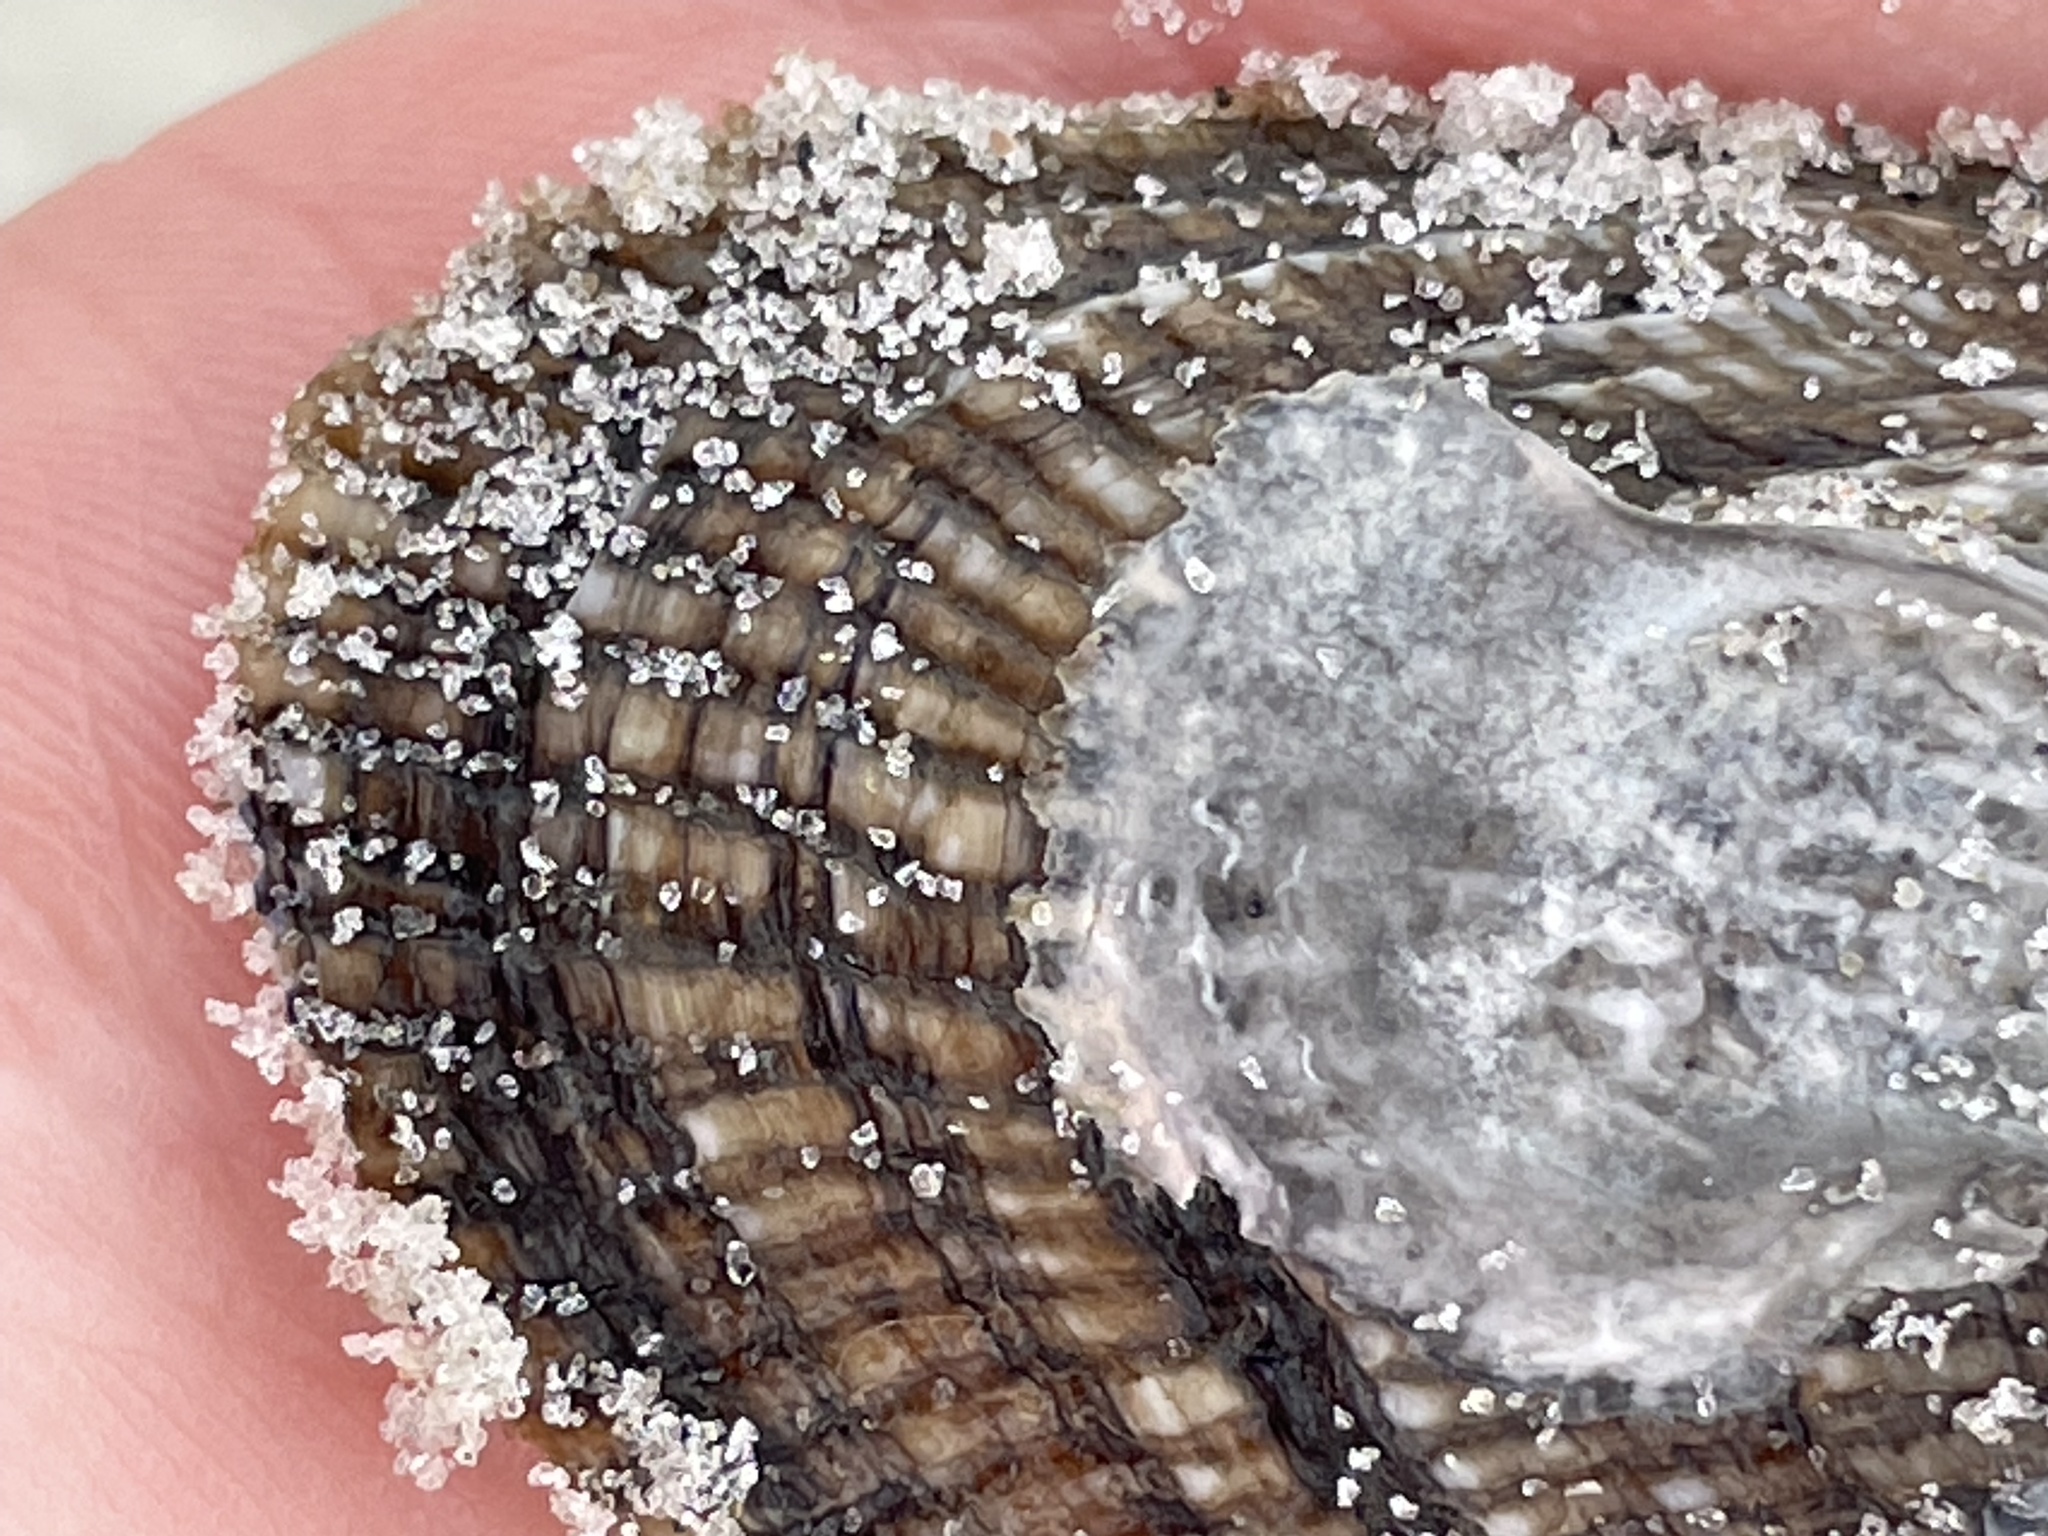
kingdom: Animalia
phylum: Mollusca
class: Bivalvia
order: Mytilida
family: Mytilidae
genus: Geukensia
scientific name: Geukensia demissa
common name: Ribbed mussel
